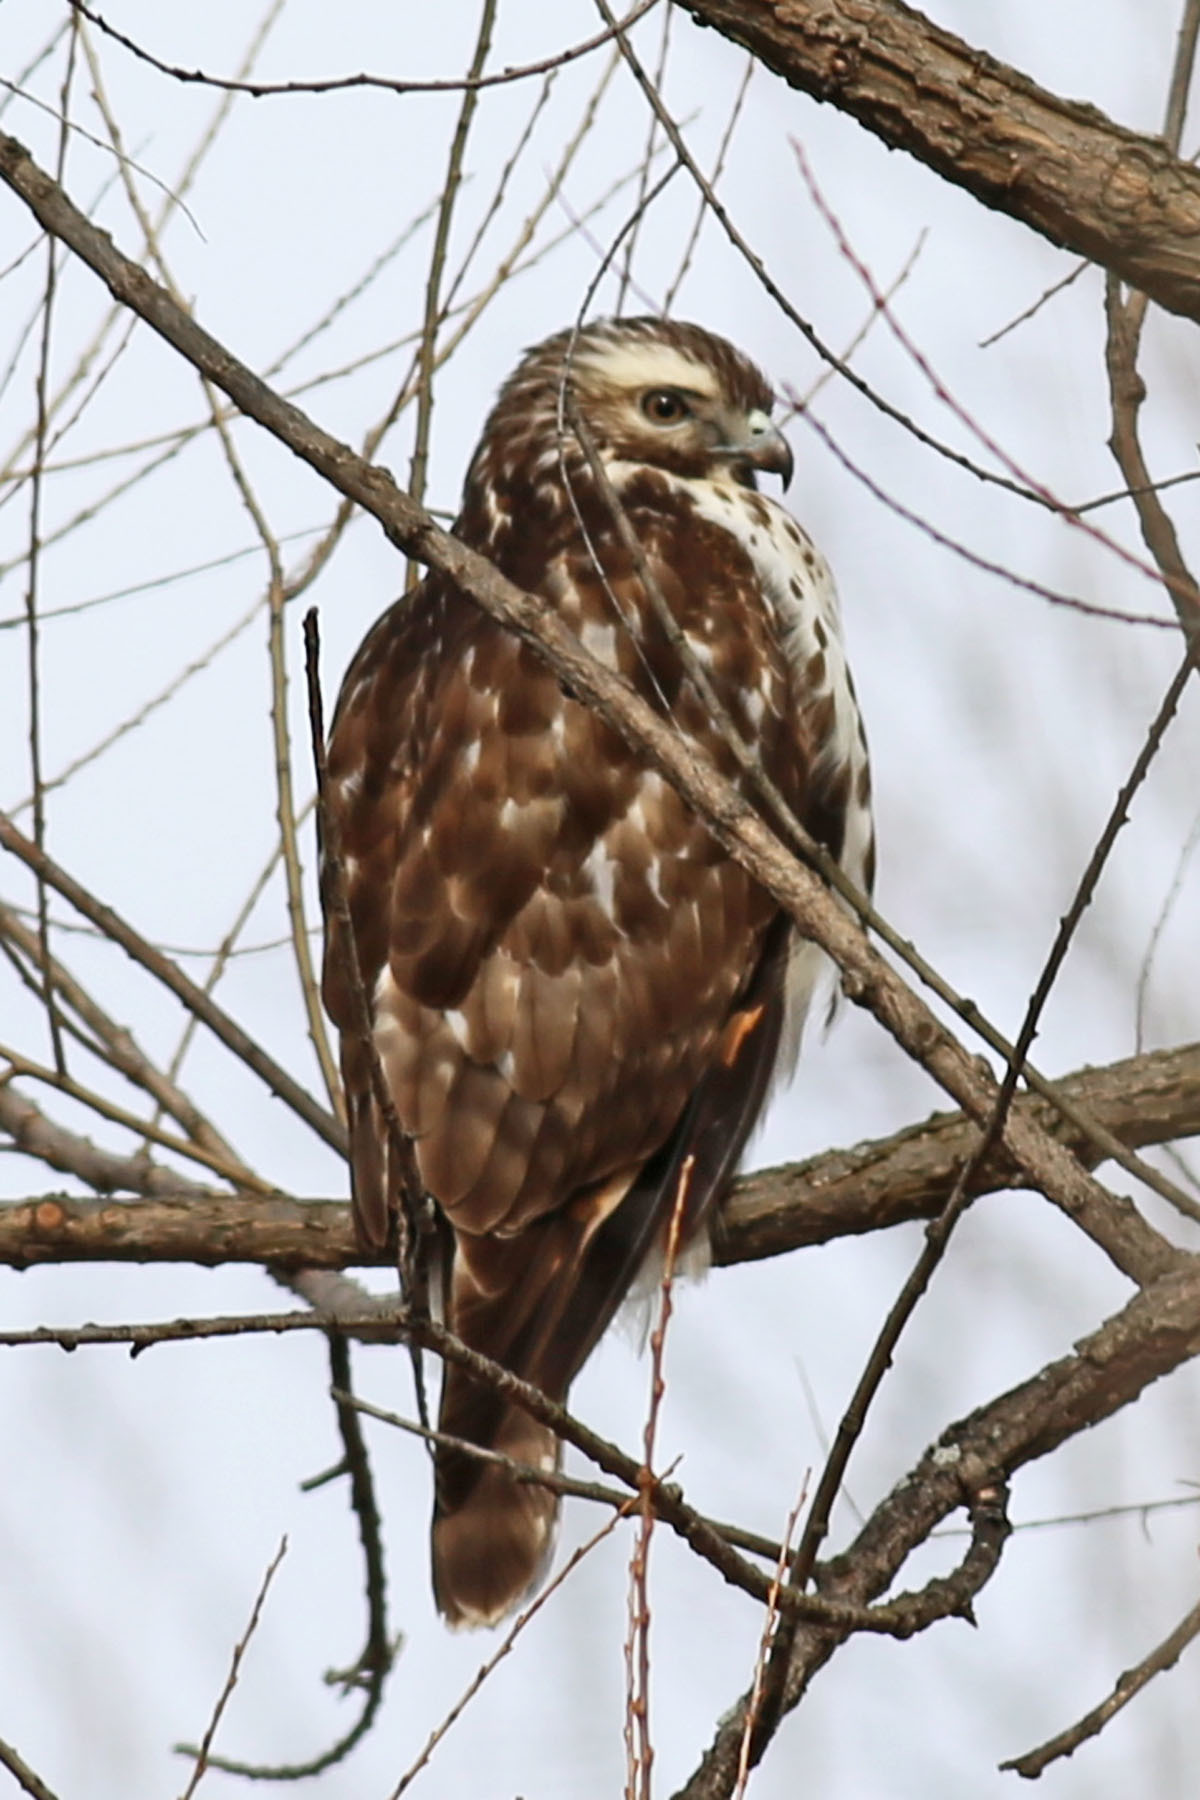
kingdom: Animalia
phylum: Chordata
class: Aves
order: Accipitriformes
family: Accipitridae
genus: Buteo
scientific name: Buteo lineatus
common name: Red-shouldered hawk
